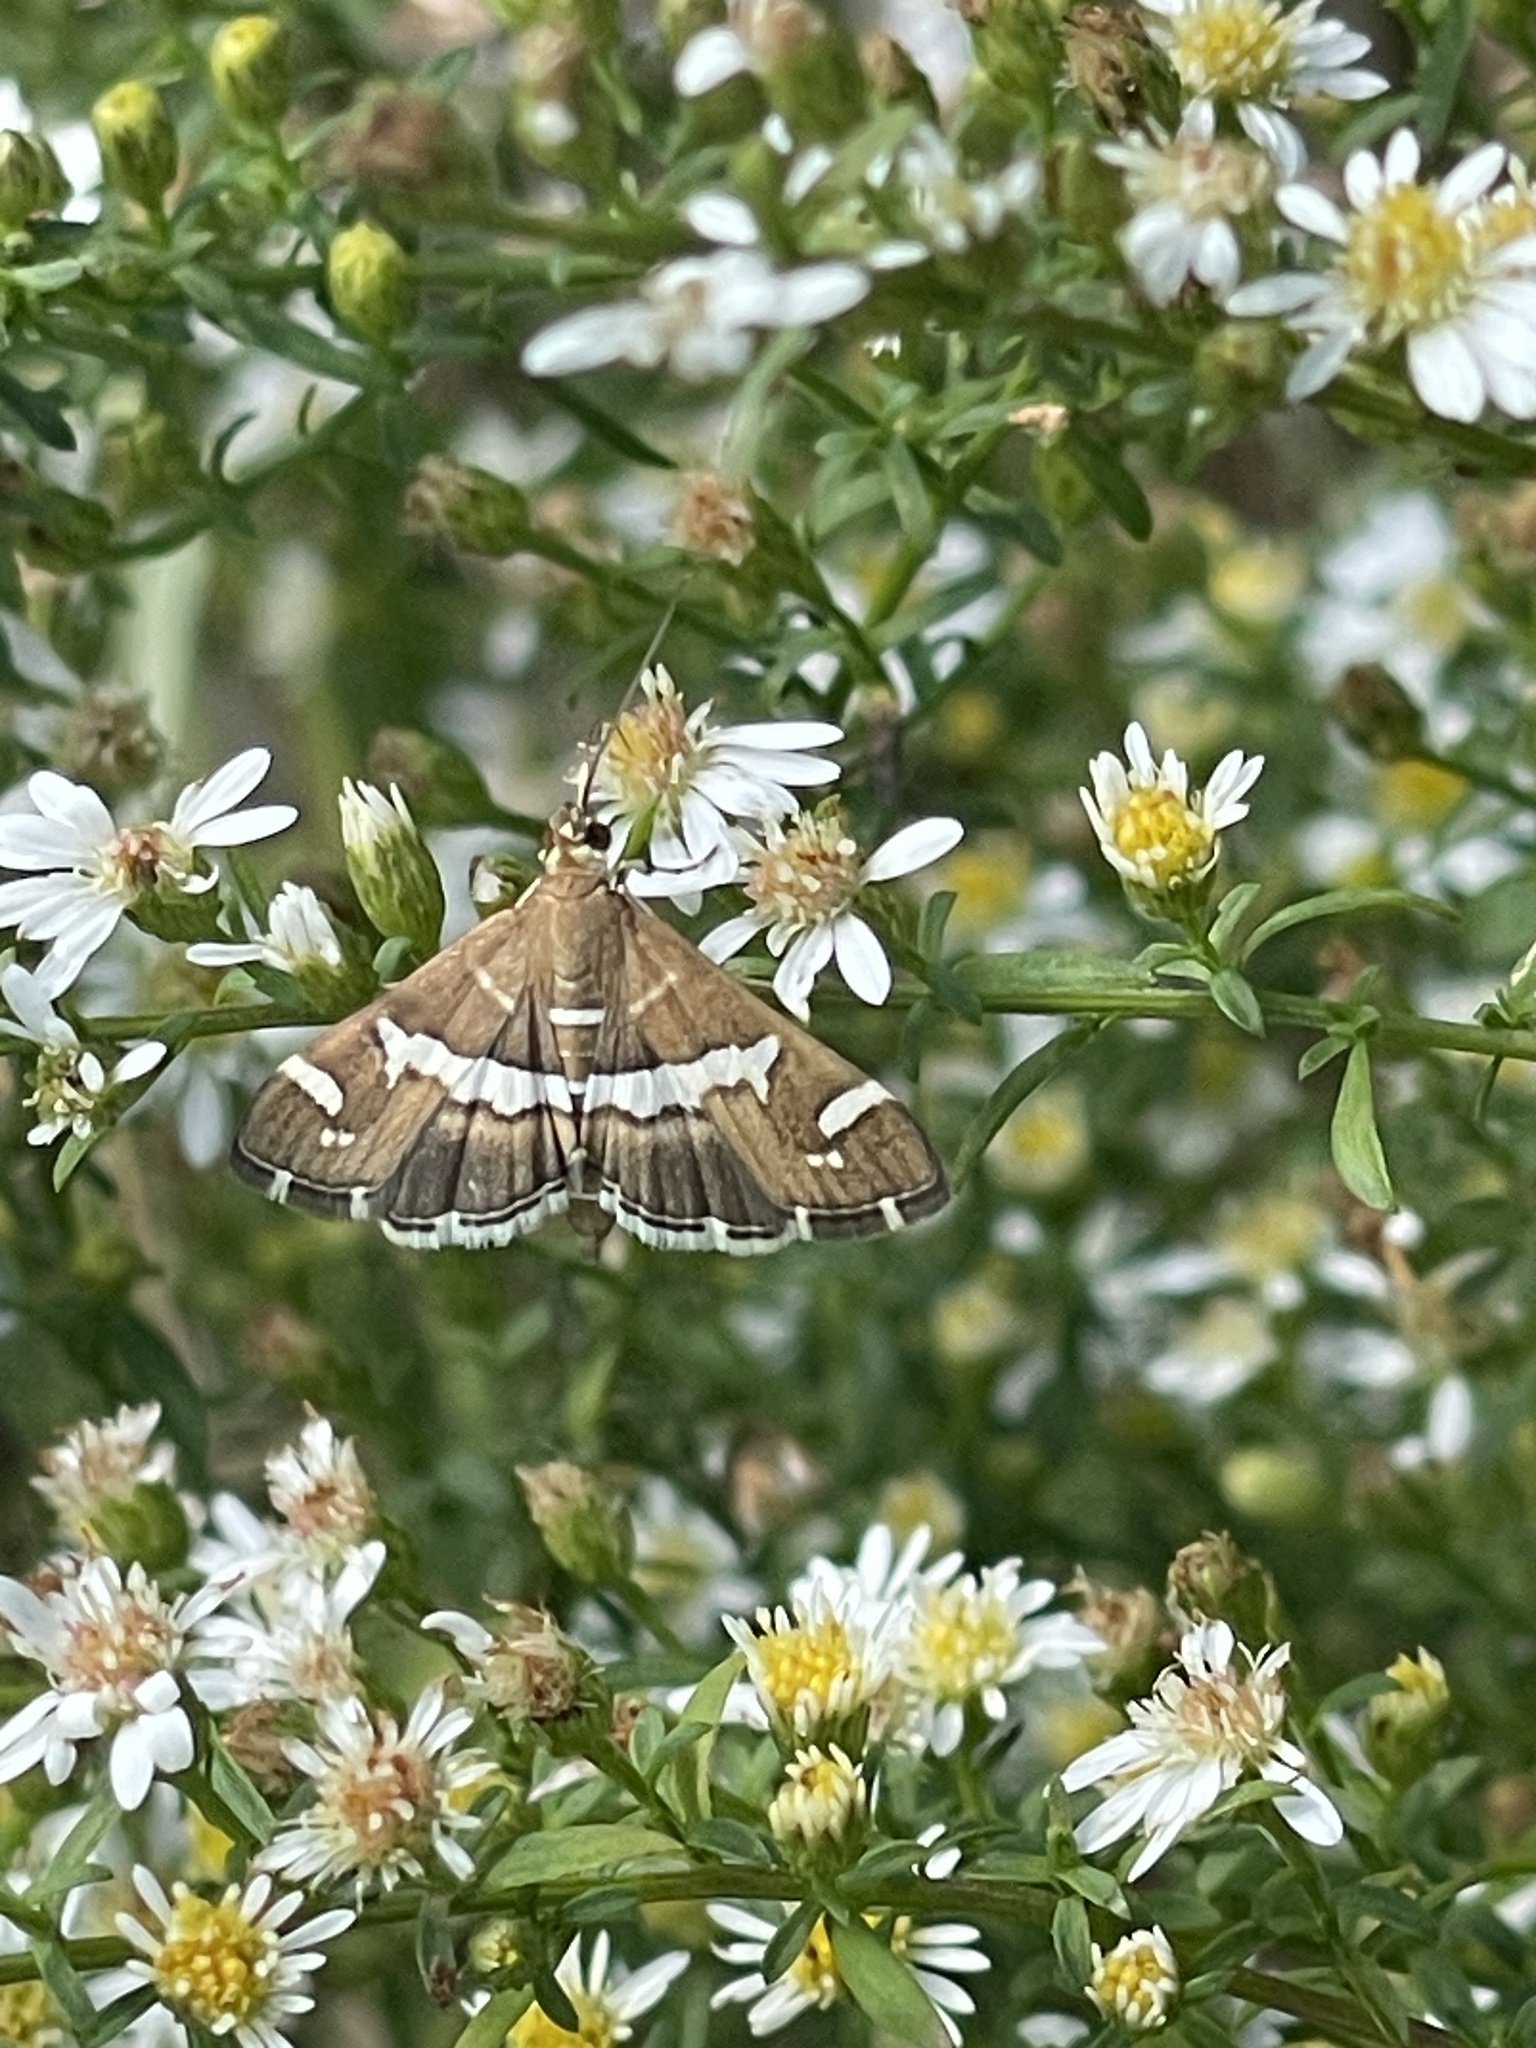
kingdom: Animalia
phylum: Arthropoda
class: Insecta
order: Lepidoptera
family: Crambidae
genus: Spoladea
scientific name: Spoladea recurvalis
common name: Beet webworm moth
